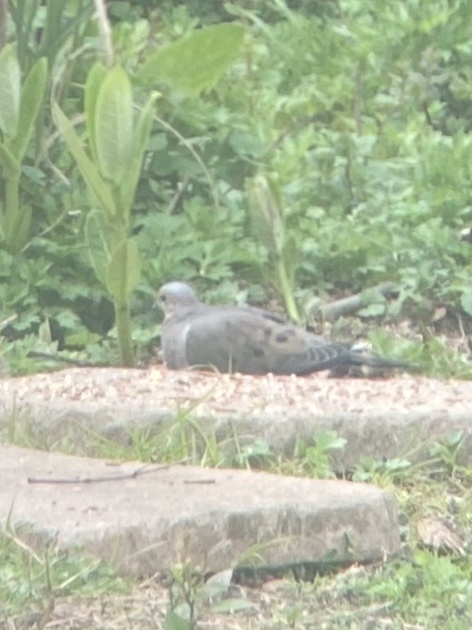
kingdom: Animalia
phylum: Chordata
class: Aves
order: Columbiformes
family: Columbidae
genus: Zenaida
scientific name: Zenaida macroura
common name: Mourning dove
